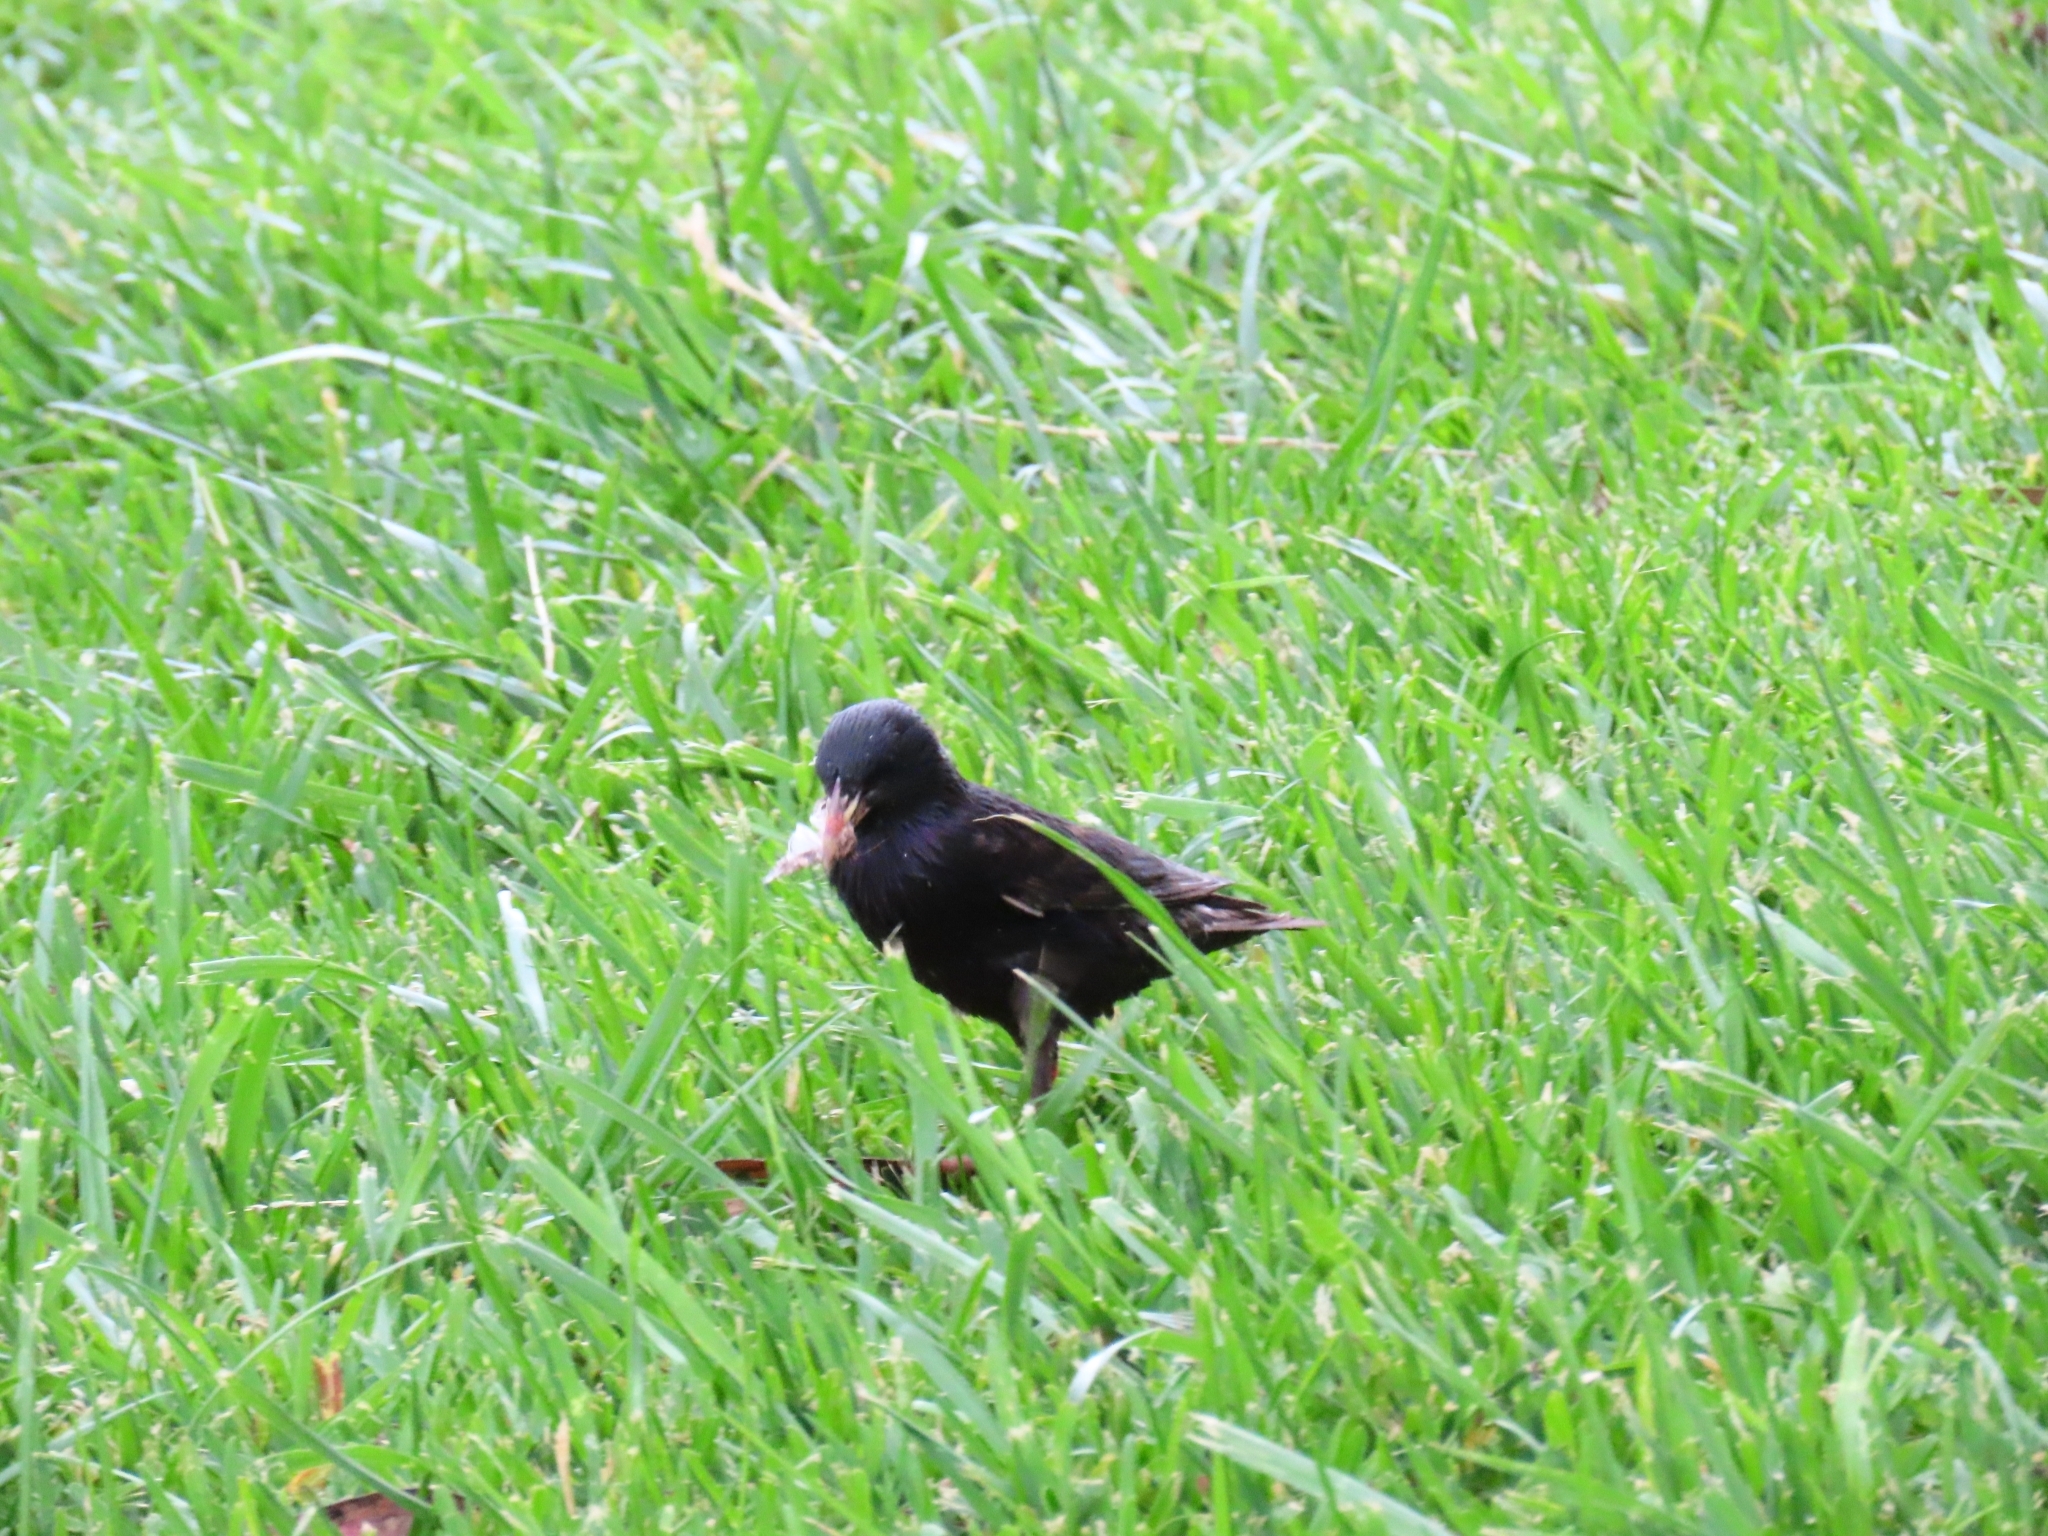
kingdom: Animalia
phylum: Chordata
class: Aves
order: Passeriformes
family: Sturnidae
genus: Sturnus
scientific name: Sturnus vulgaris
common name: Common starling
